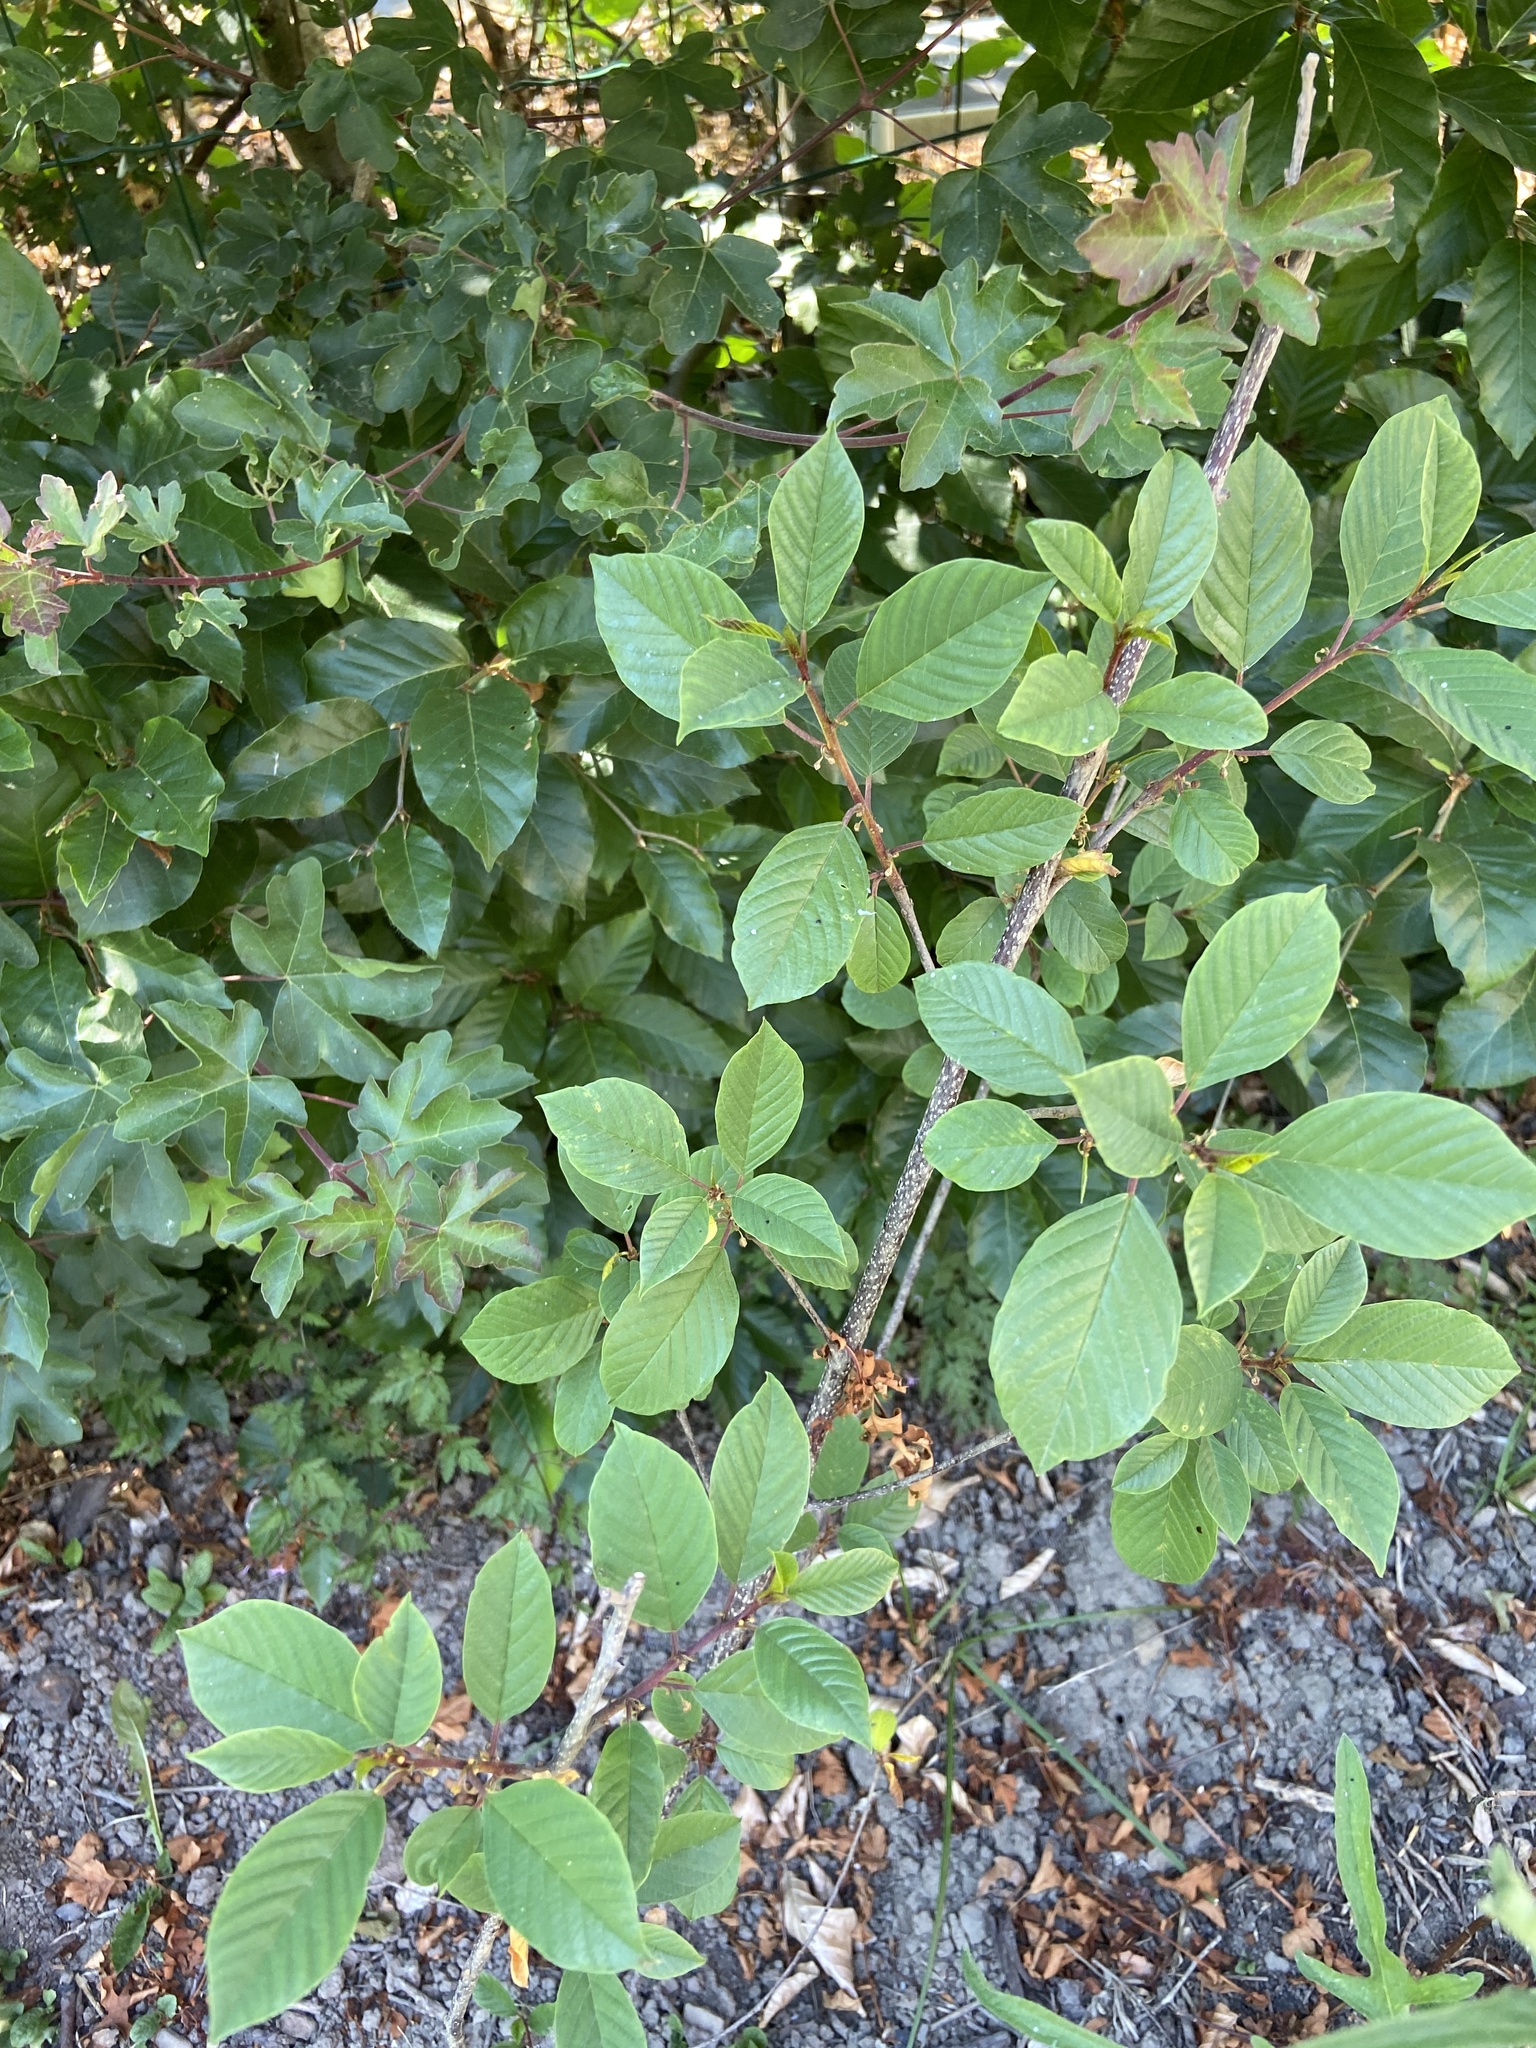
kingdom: Plantae
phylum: Tracheophyta
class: Magnoliopsida
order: Rosales
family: Rhamnaceae
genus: Frangula
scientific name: Frangula alnus
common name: Alder buckthorn
